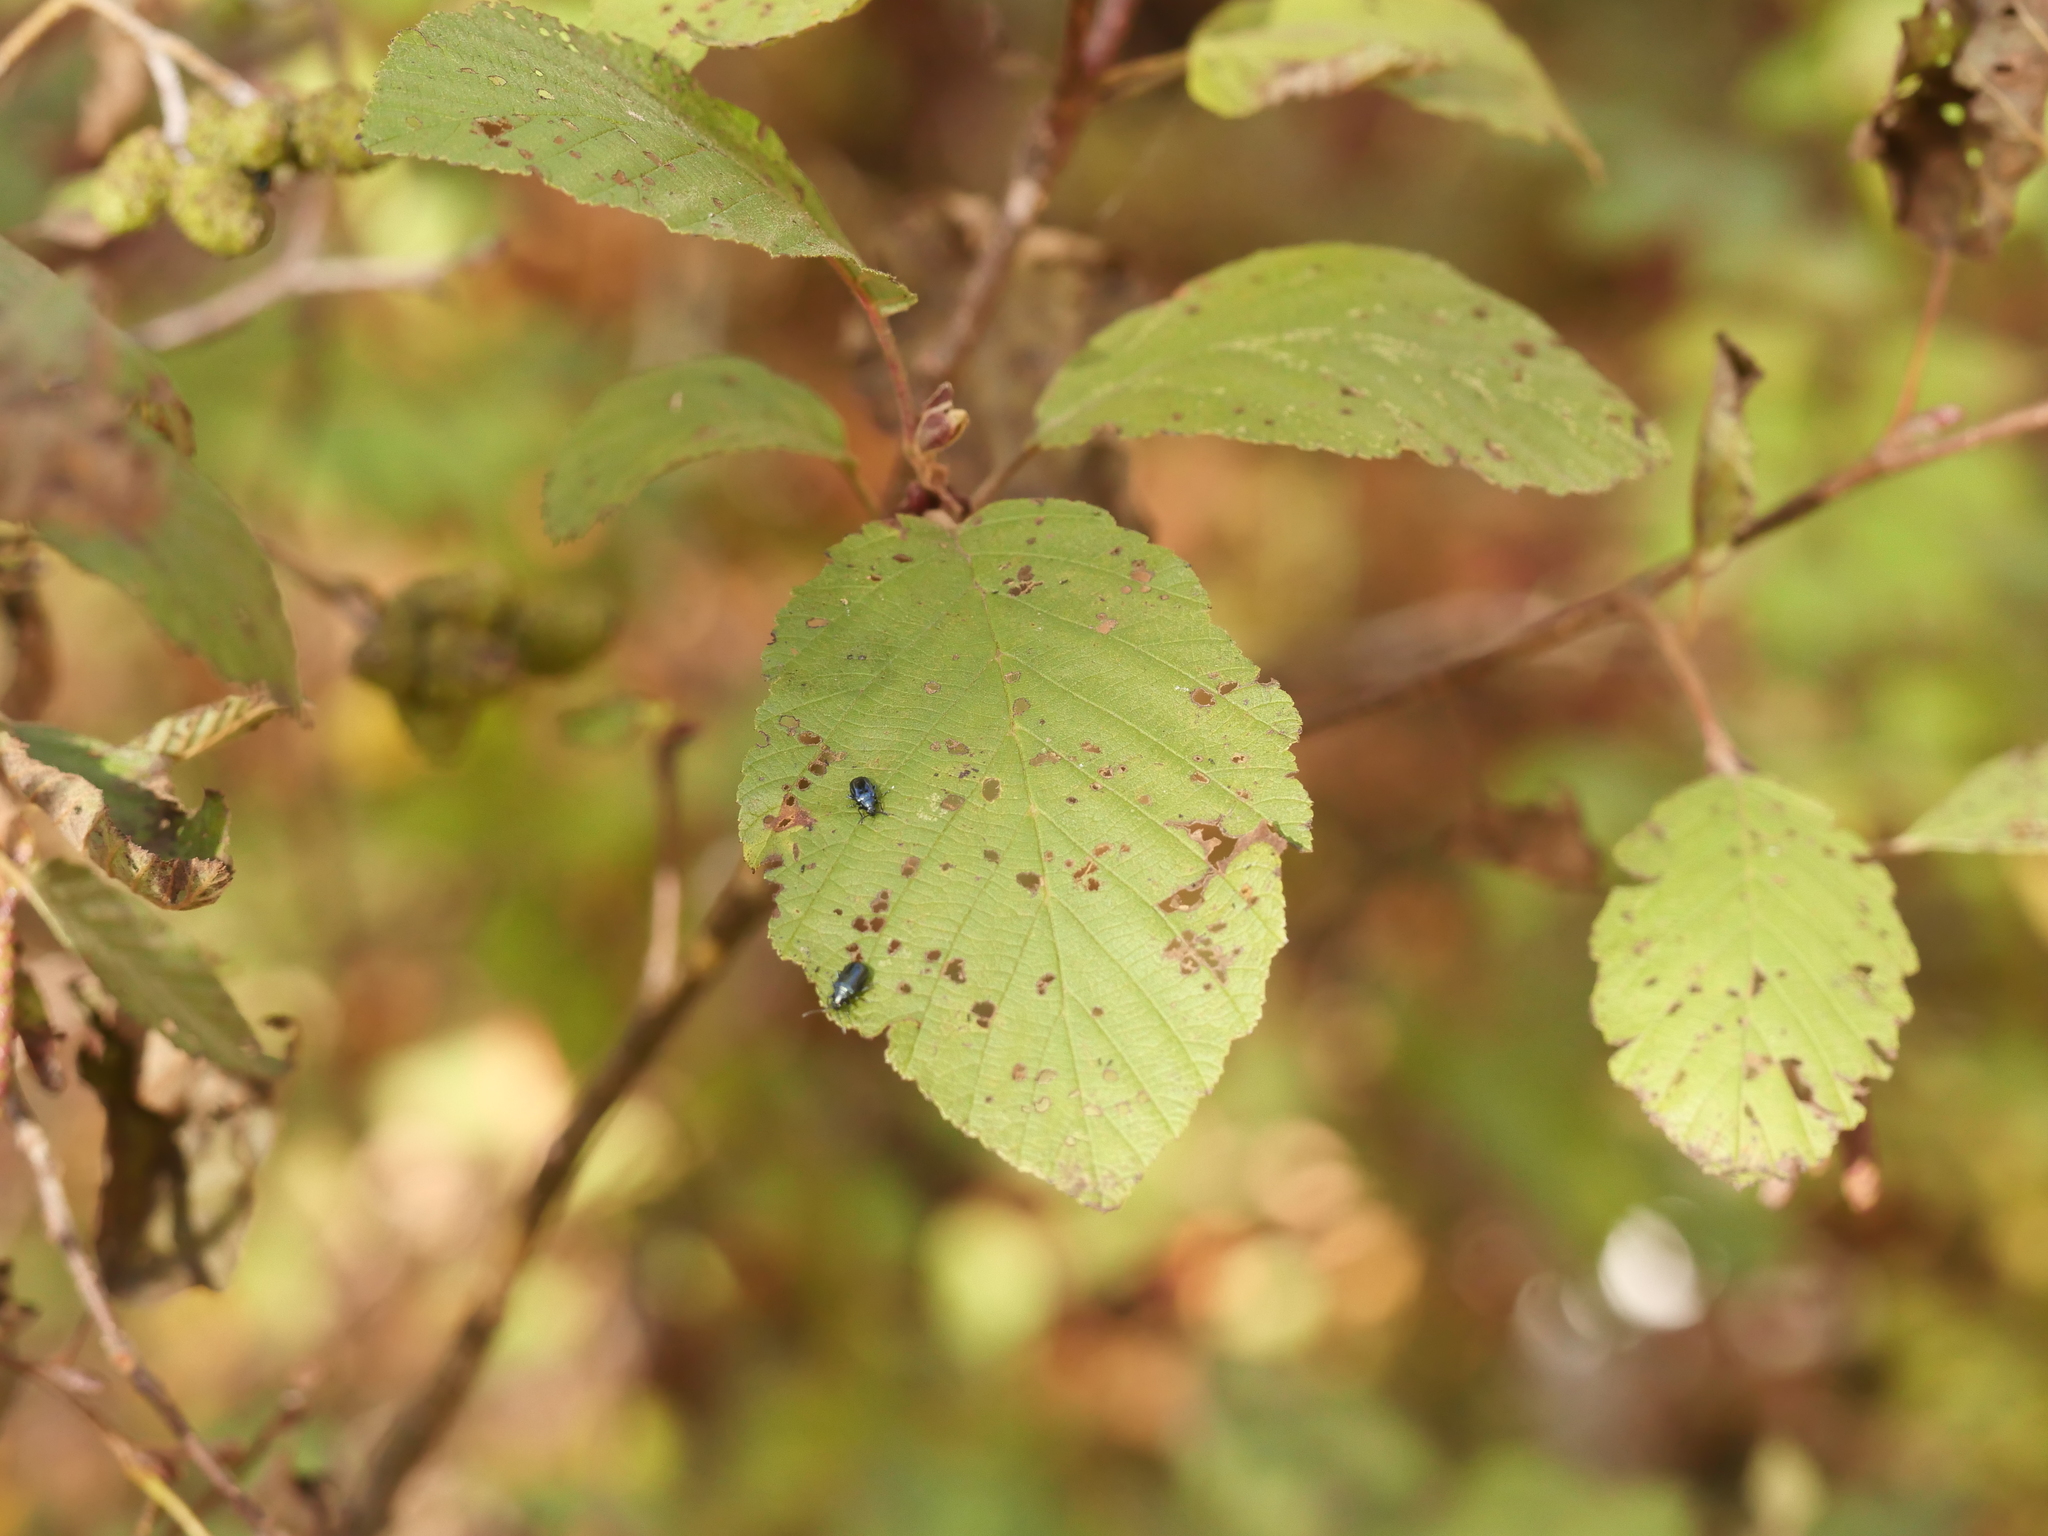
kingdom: Plantae
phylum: Tracheophyta
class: Magnoliopsida
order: Fagales
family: Betulaceae
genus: Alnus
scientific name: Alnus incana
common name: Grey alder
